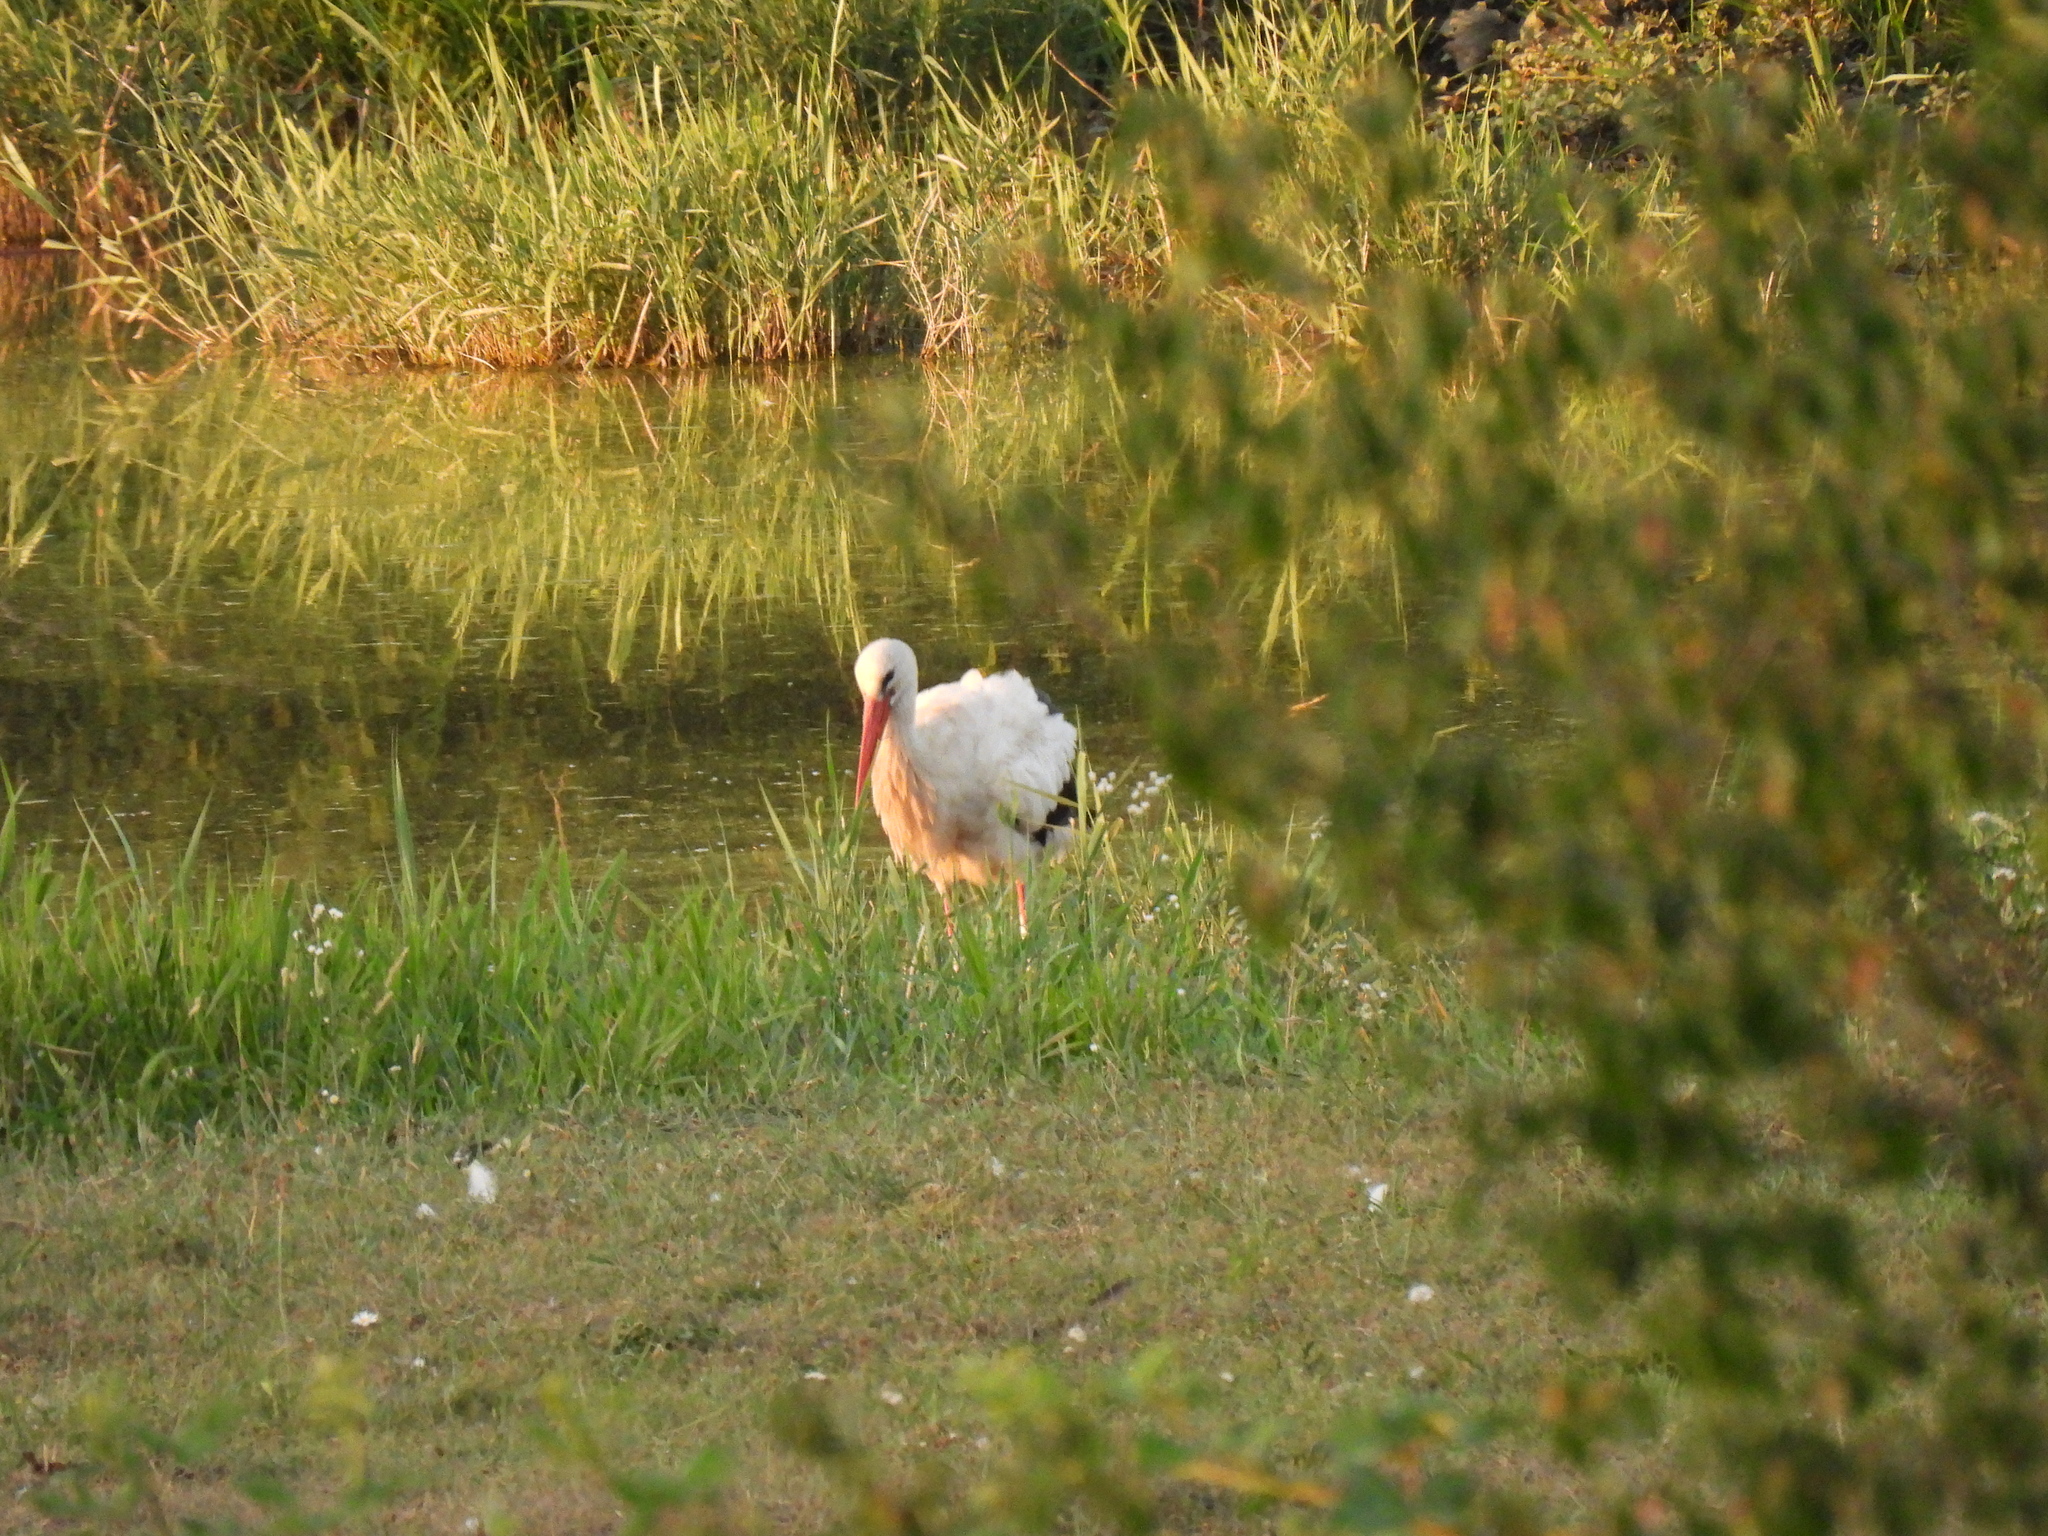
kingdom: Animalia
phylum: Chordata
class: Aves
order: Ciconiiformes
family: Ciconiidae
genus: Ciconia
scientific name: Ciconia ciconia
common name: White stork
